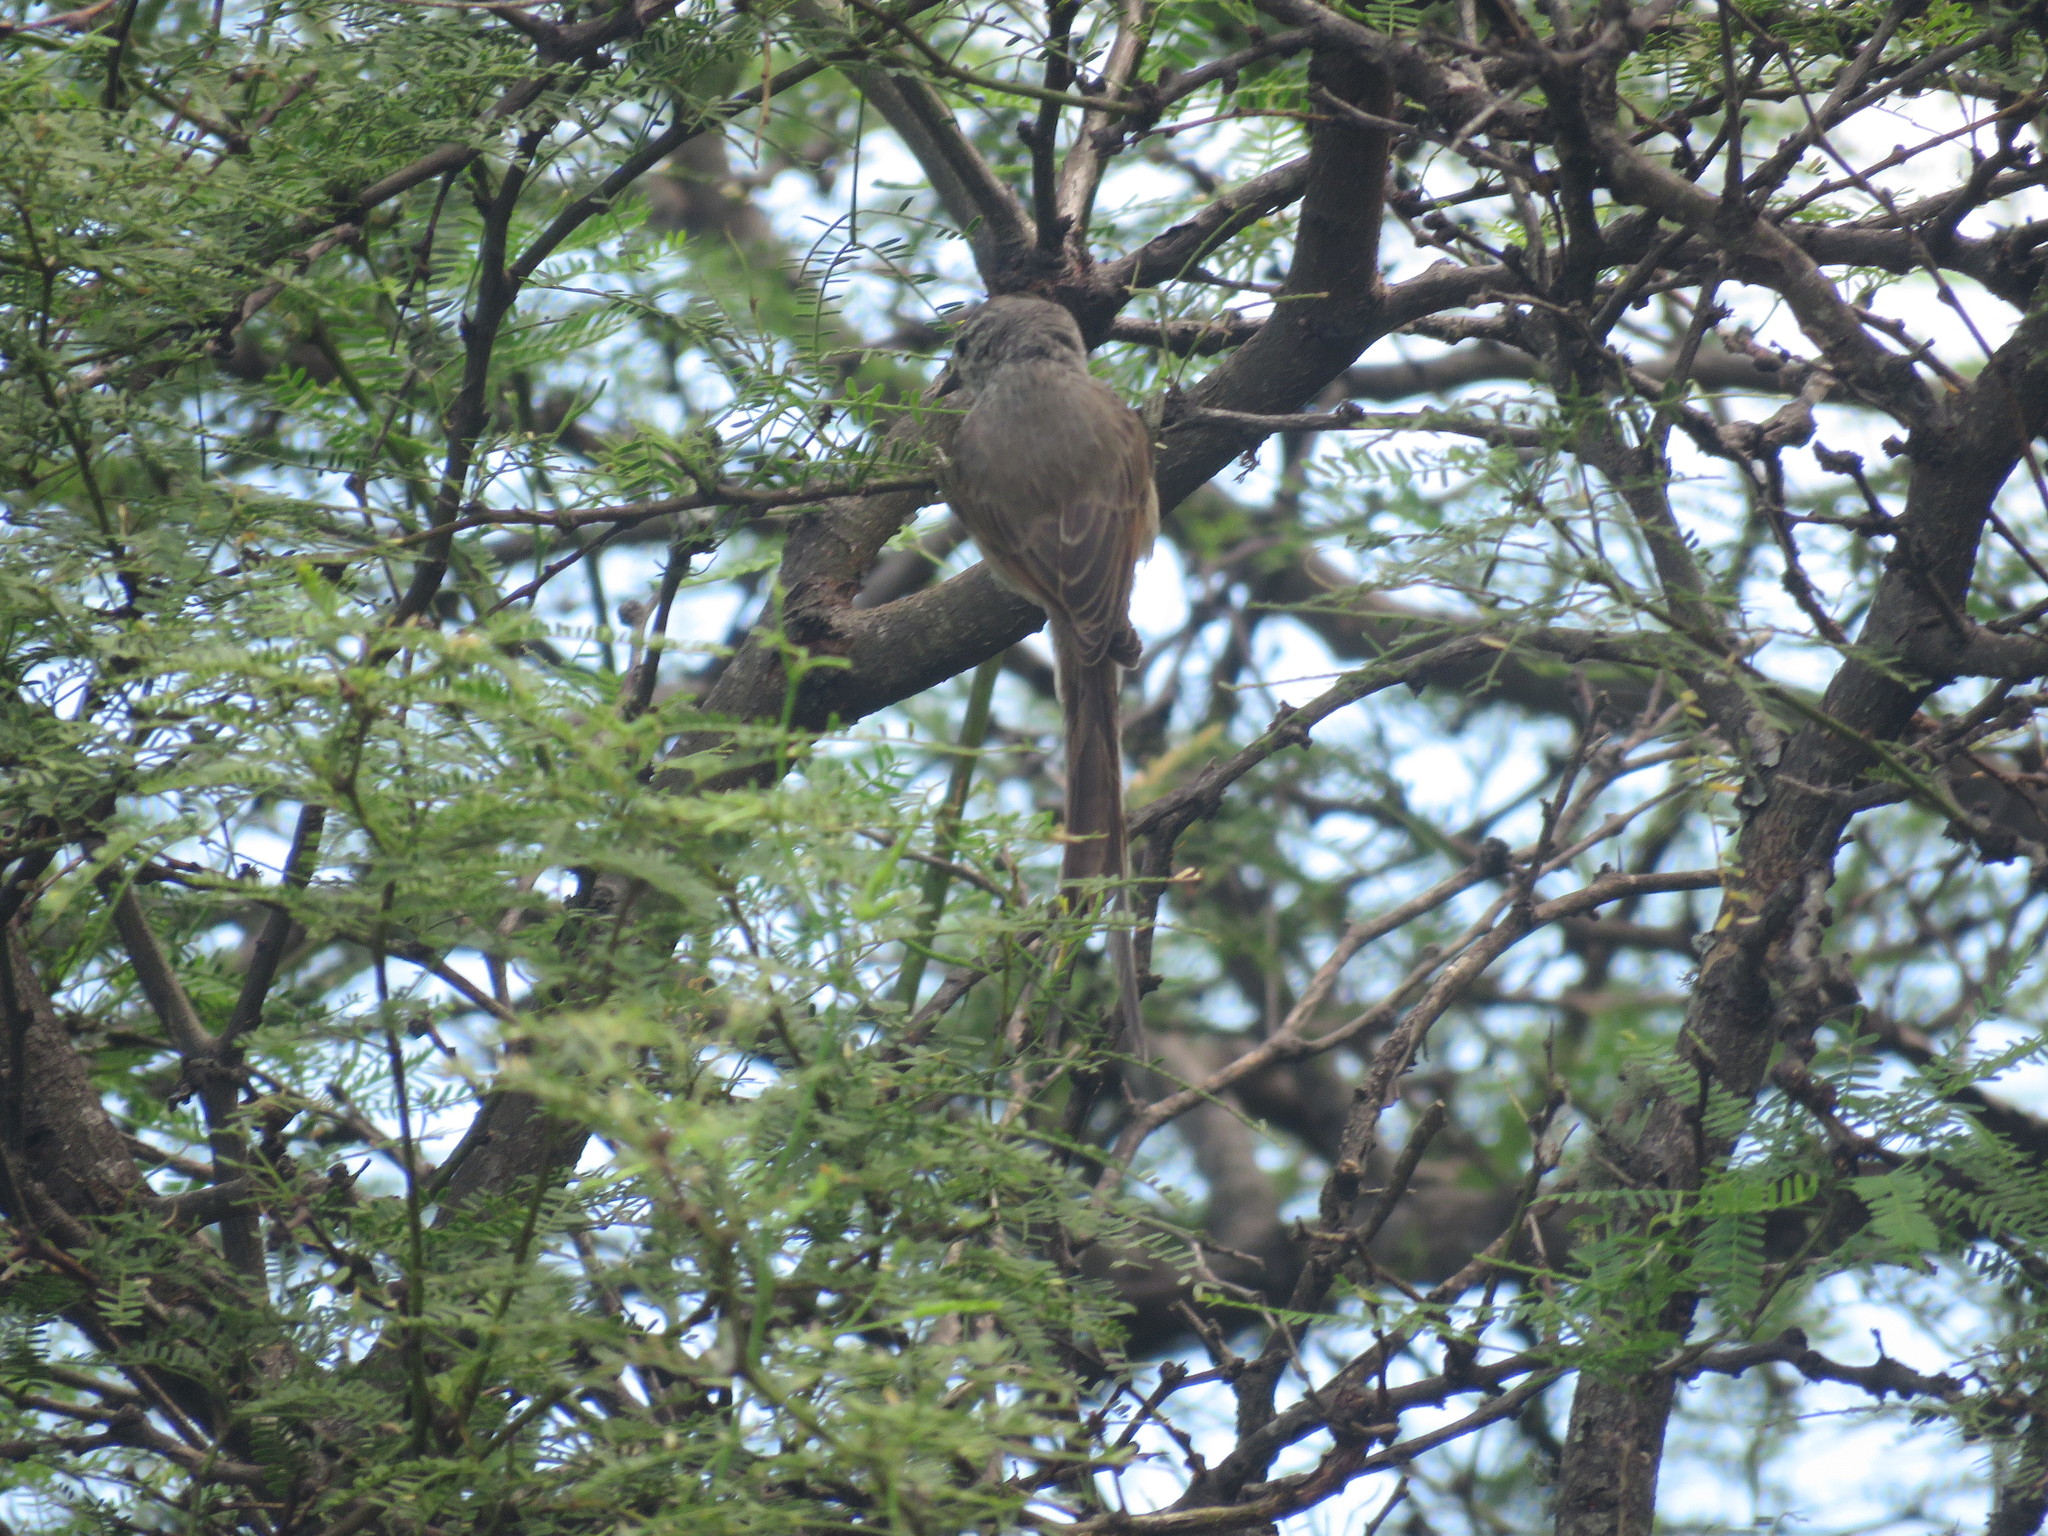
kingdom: Animalia
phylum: Chordata
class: Aves
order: Passeriformes
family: Furnariidae
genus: Leptasthenura
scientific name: Leptasthenura platensis
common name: Tufted tit-spinetail
